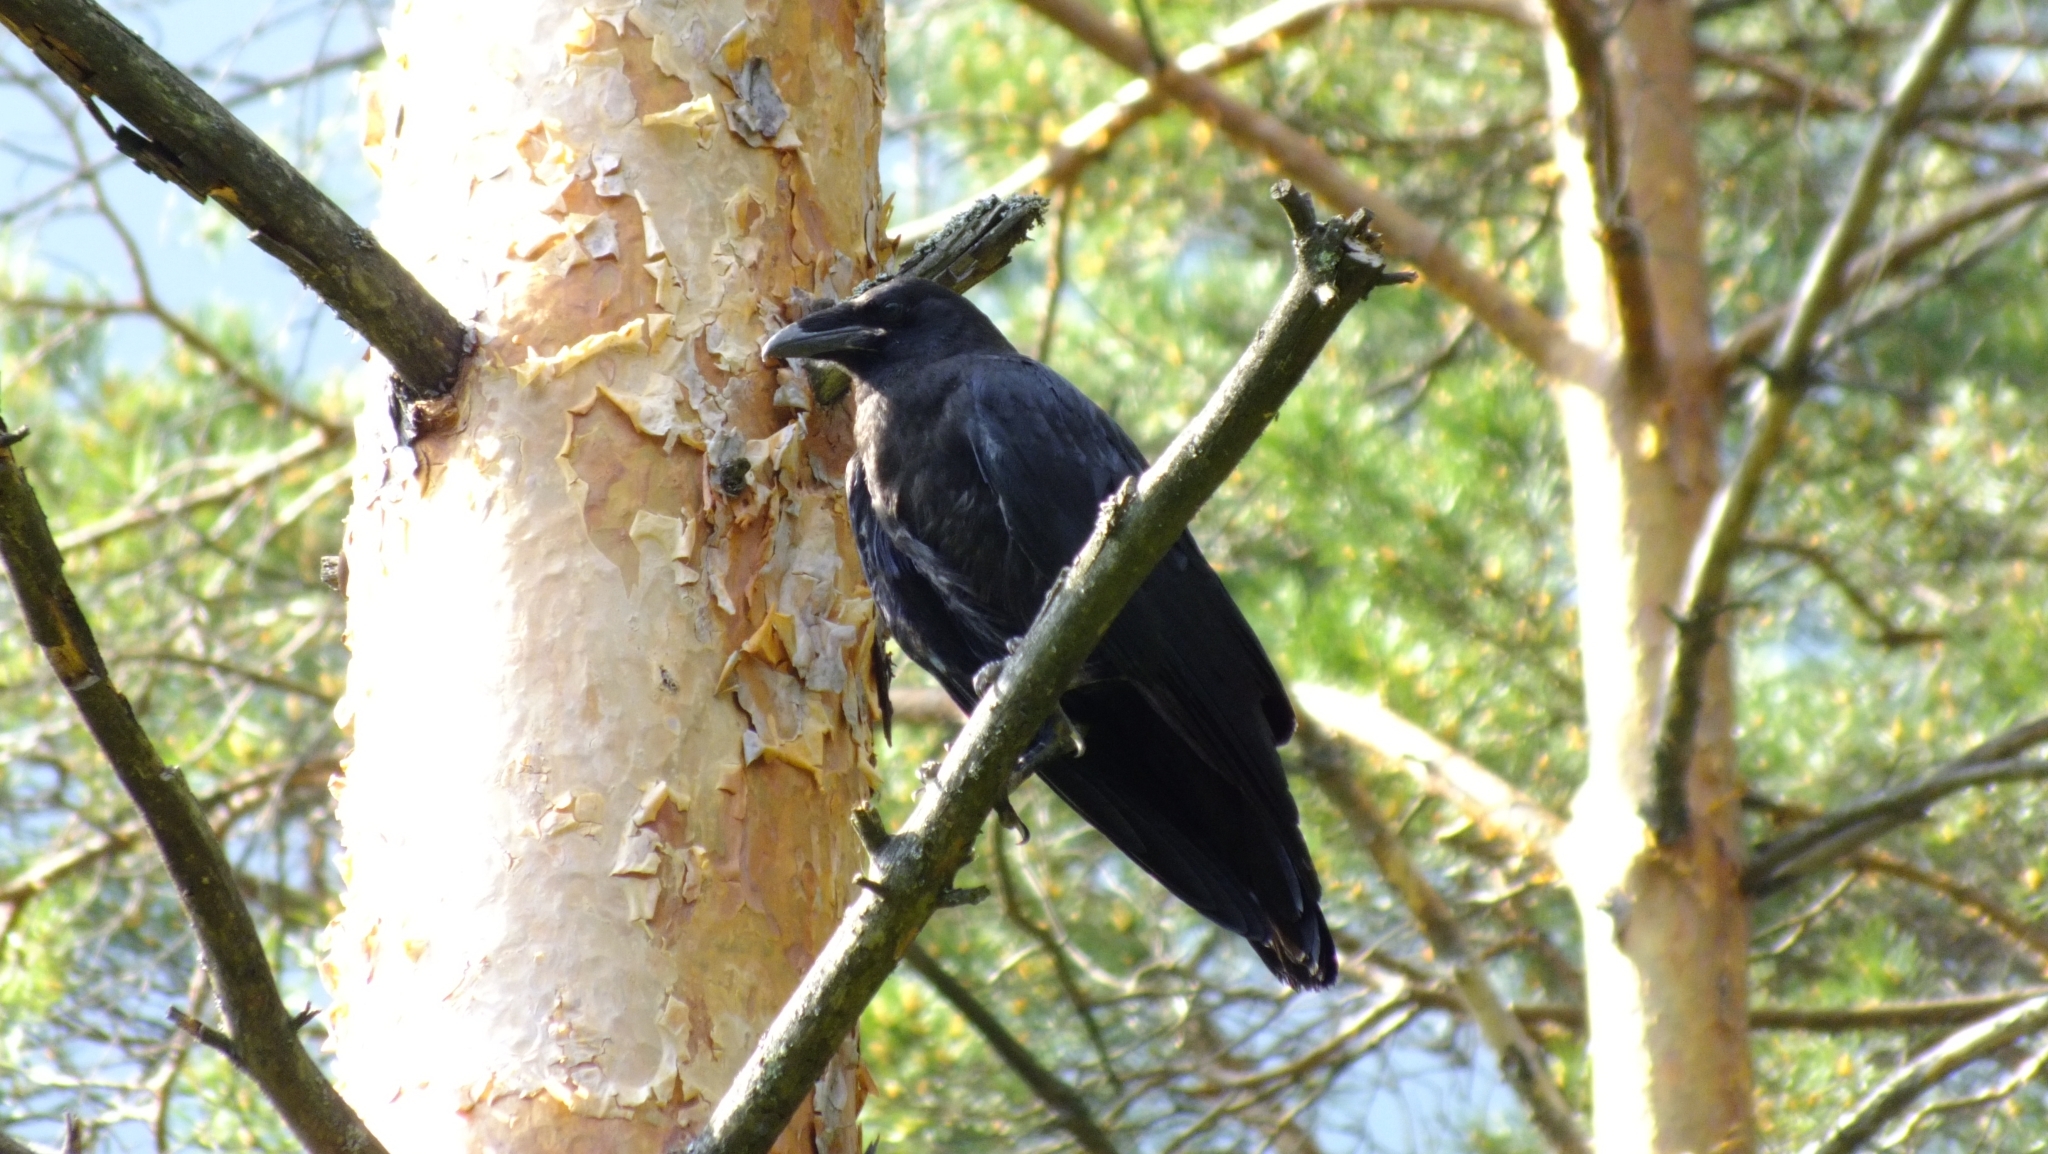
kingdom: Animalia
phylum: Chordata
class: Aves
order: Passeriformes
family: Corvidae
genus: Corvus
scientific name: Corvus corax
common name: Common raven
